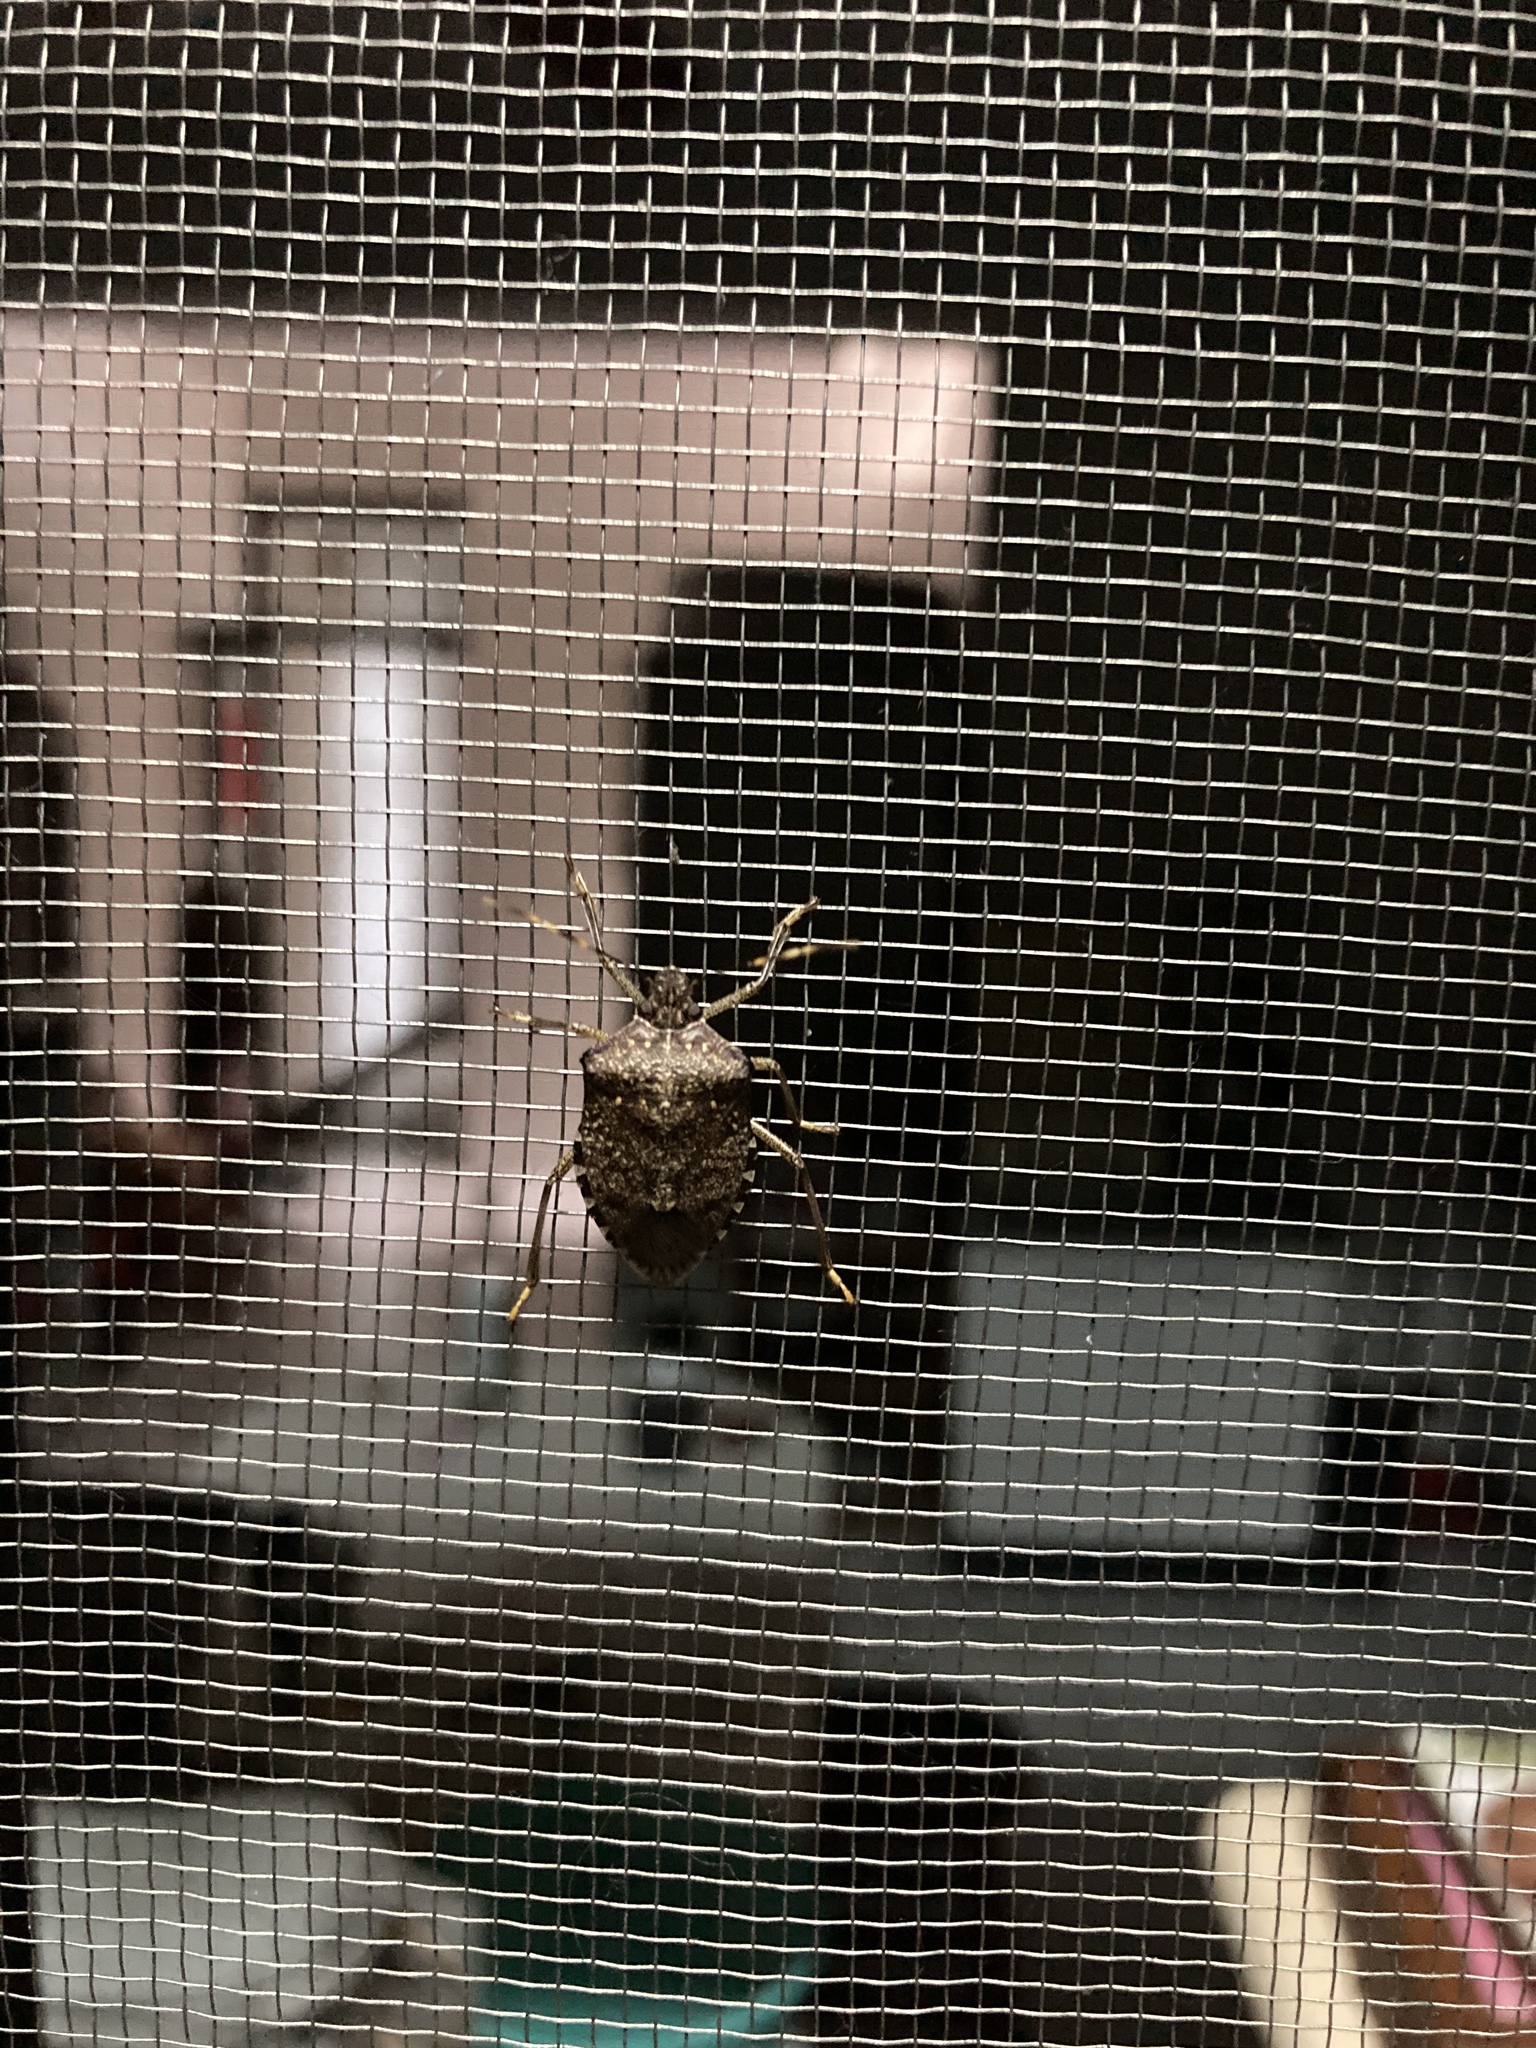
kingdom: Animalia
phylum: Arthropoda
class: Insecta
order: Hemiptera
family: Pentatomidae
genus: Halyomorpha
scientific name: Halyomorpha halys
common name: Brown marmorated stink bug
